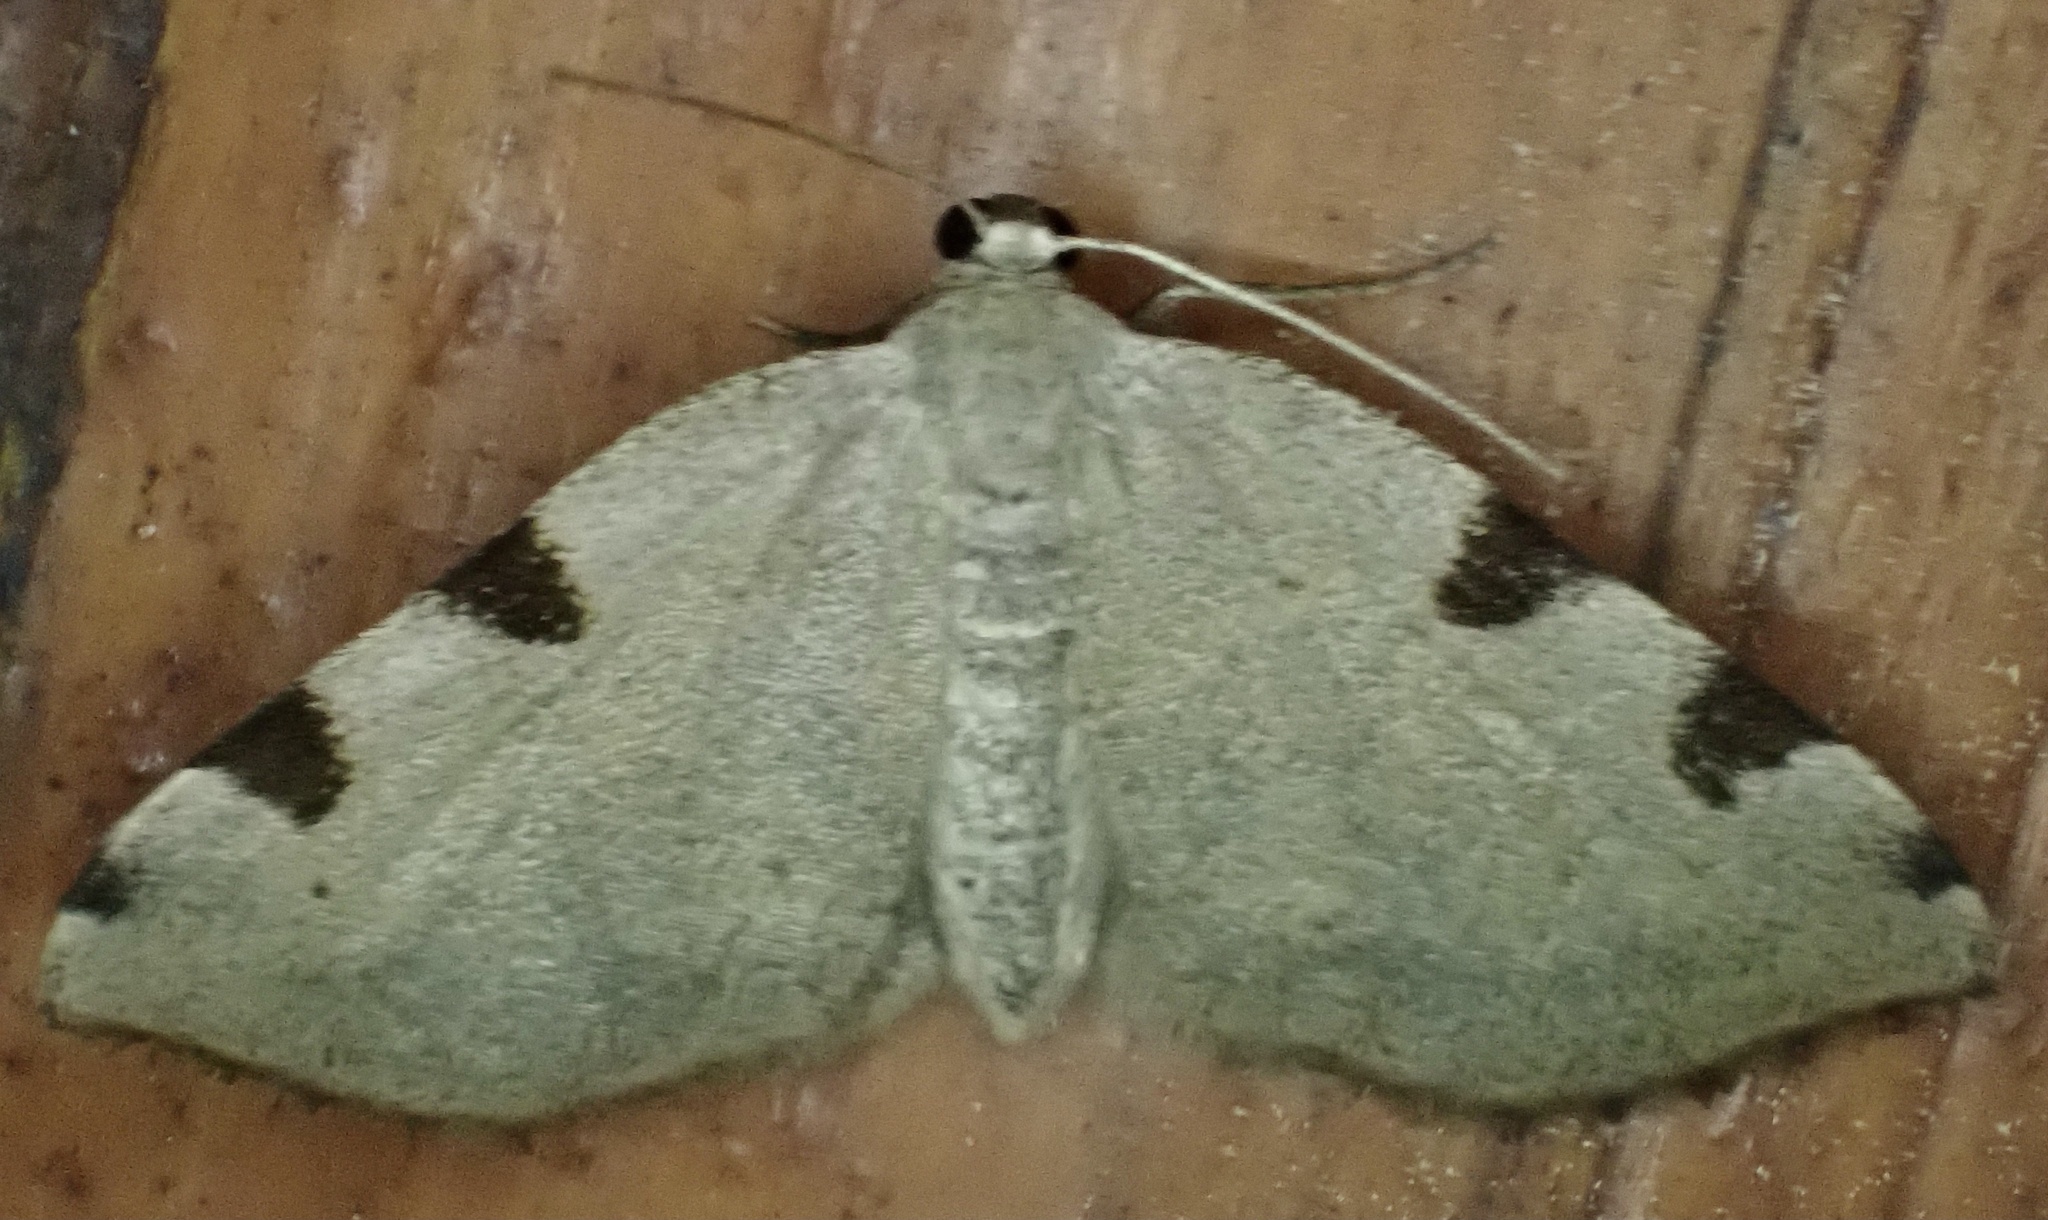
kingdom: Animalia
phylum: Arthropoda
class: Insecta
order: Lepidoptera
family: Geometridae
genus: Heterophleps
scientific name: Heterophleps triguttaria
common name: Three-spotted fillip
